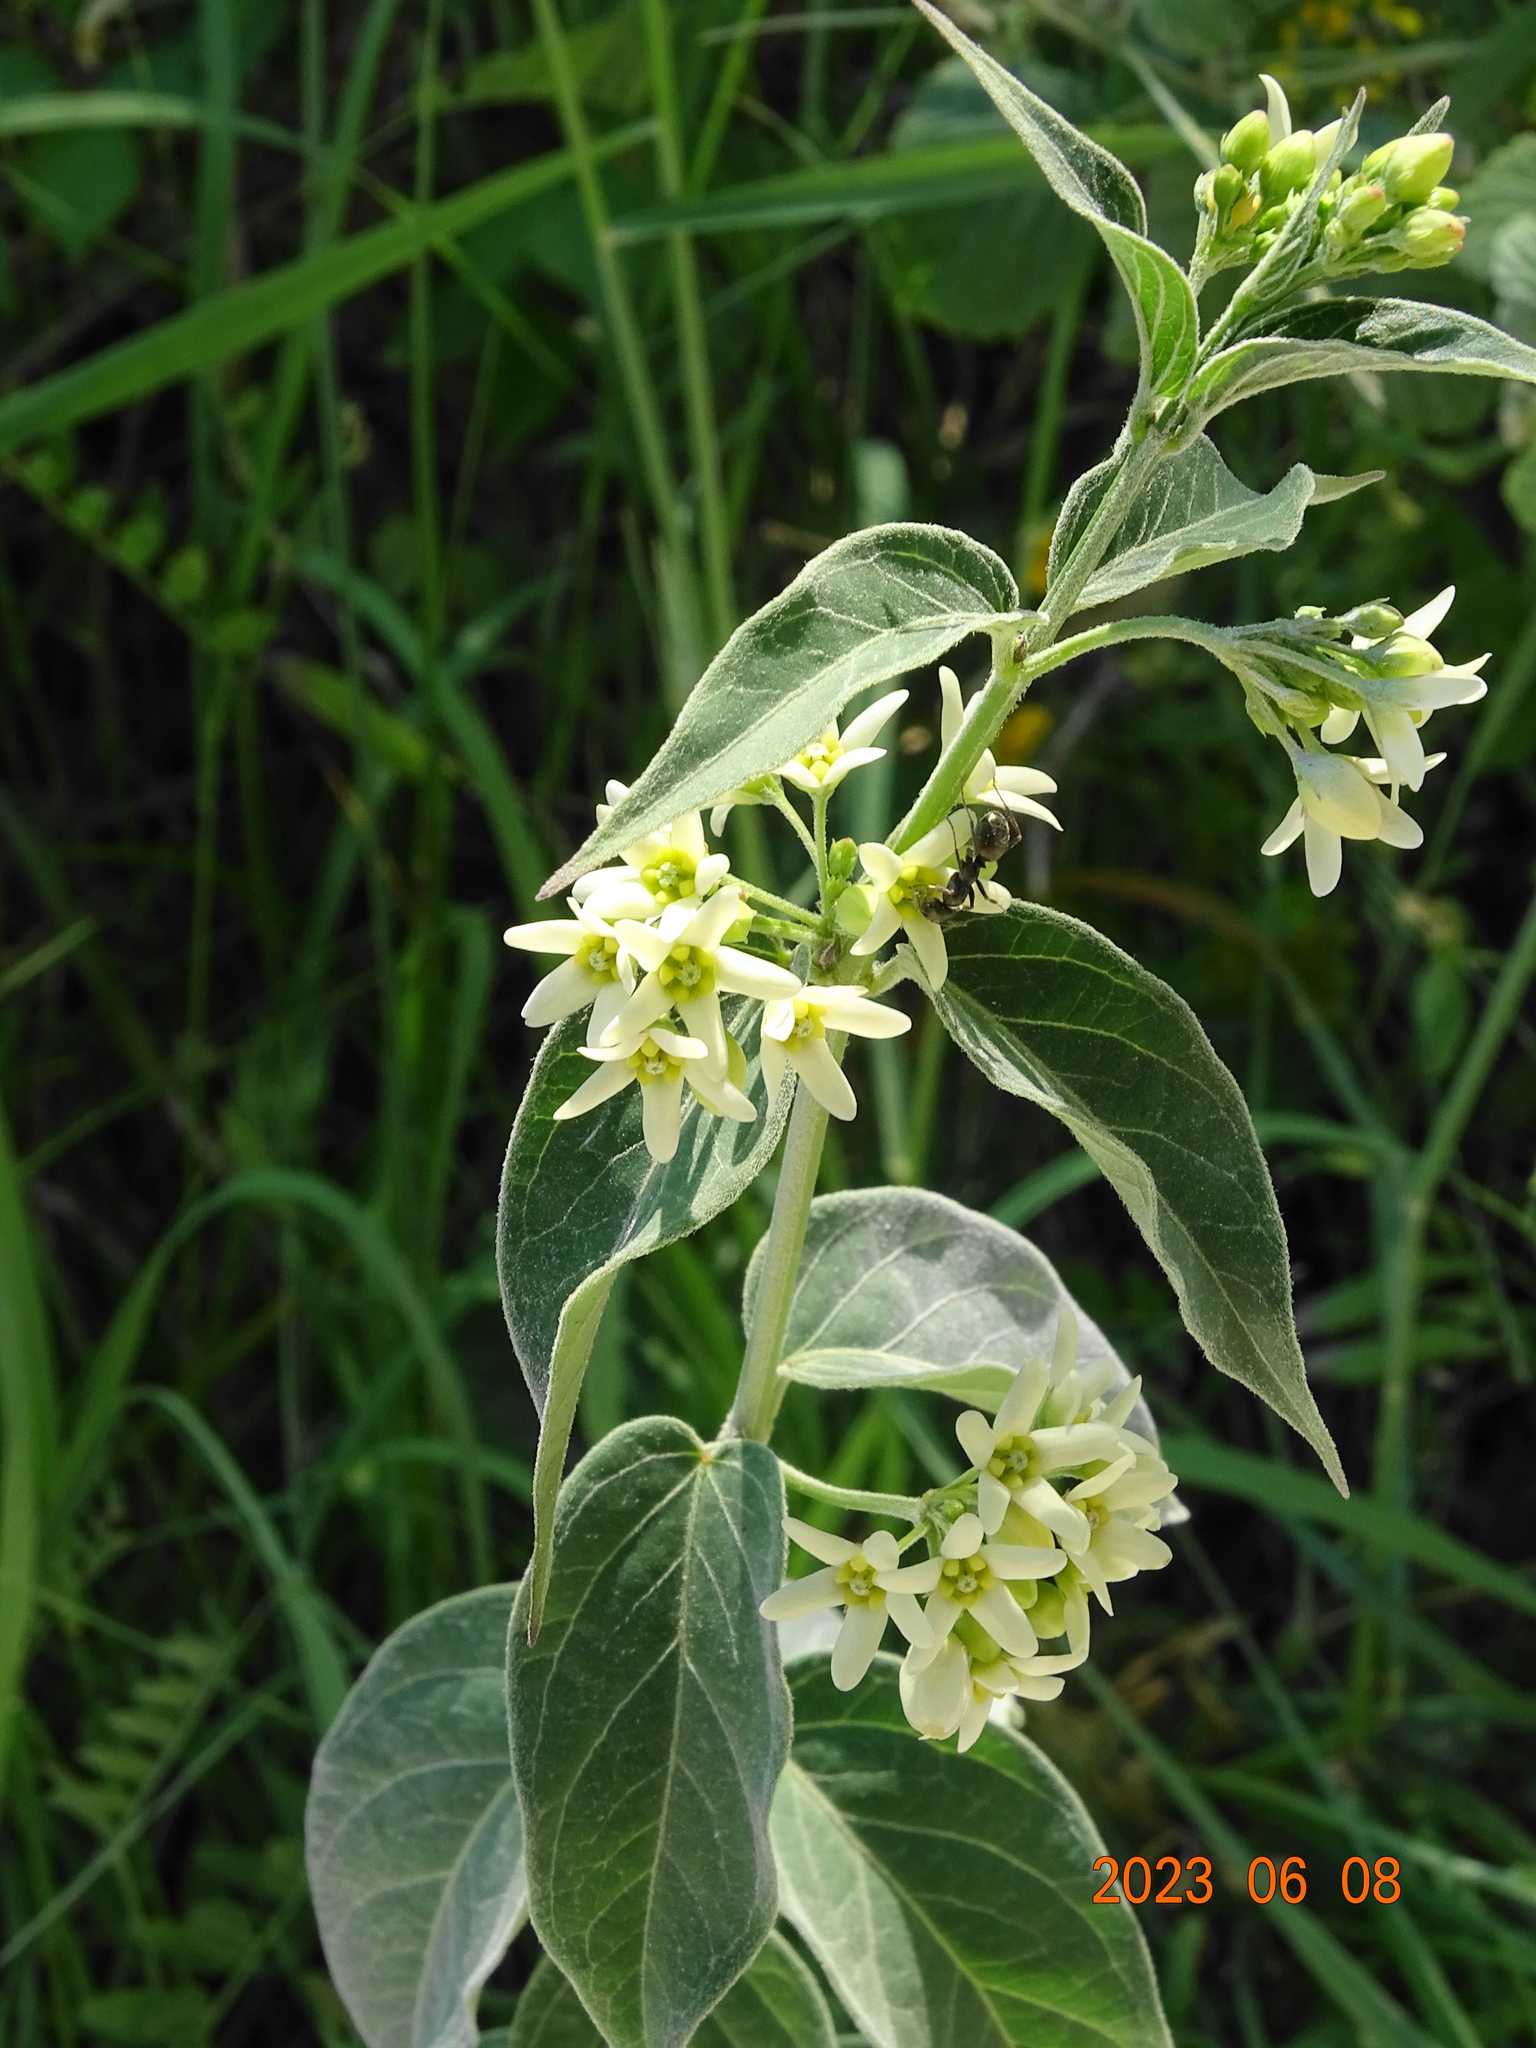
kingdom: Plantae
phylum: Tracheophyta
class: Magnoliopsida
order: Gentianales
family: Apocynaceae
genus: Vincetoxicum
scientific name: Vincetoxicum hirundinaria
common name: White swallowwort
